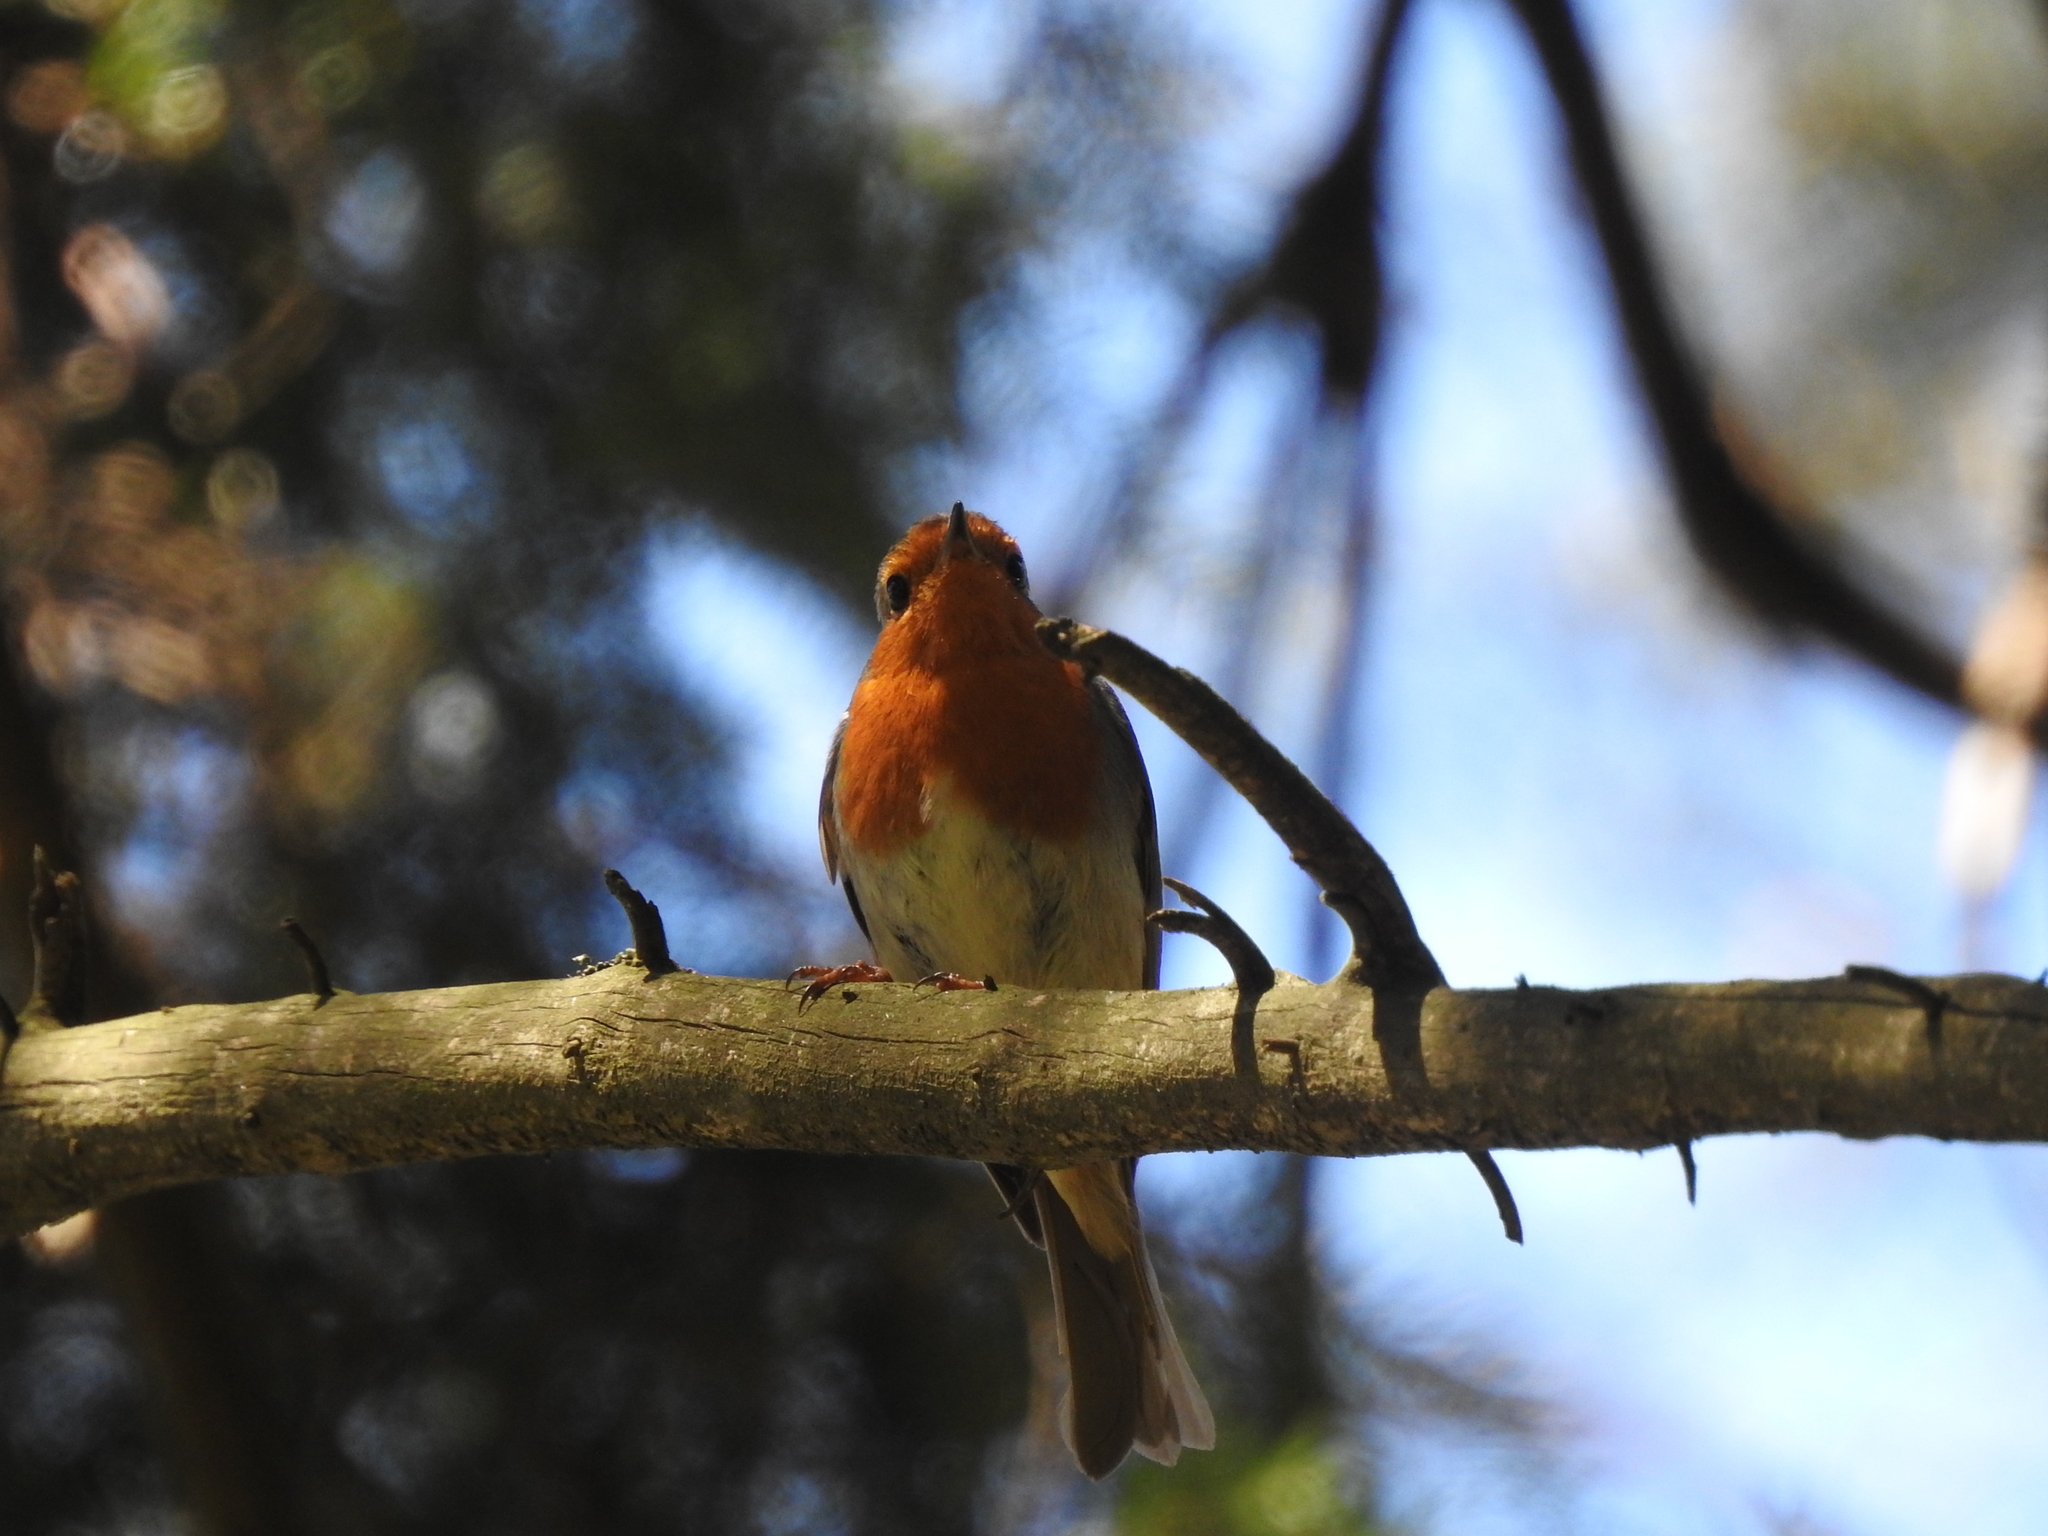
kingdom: Animalia
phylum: Chordata
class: Aves
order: Passeriformes
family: Muscicapidae
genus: Erithacus
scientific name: Erithacus rubecula
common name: European robin
